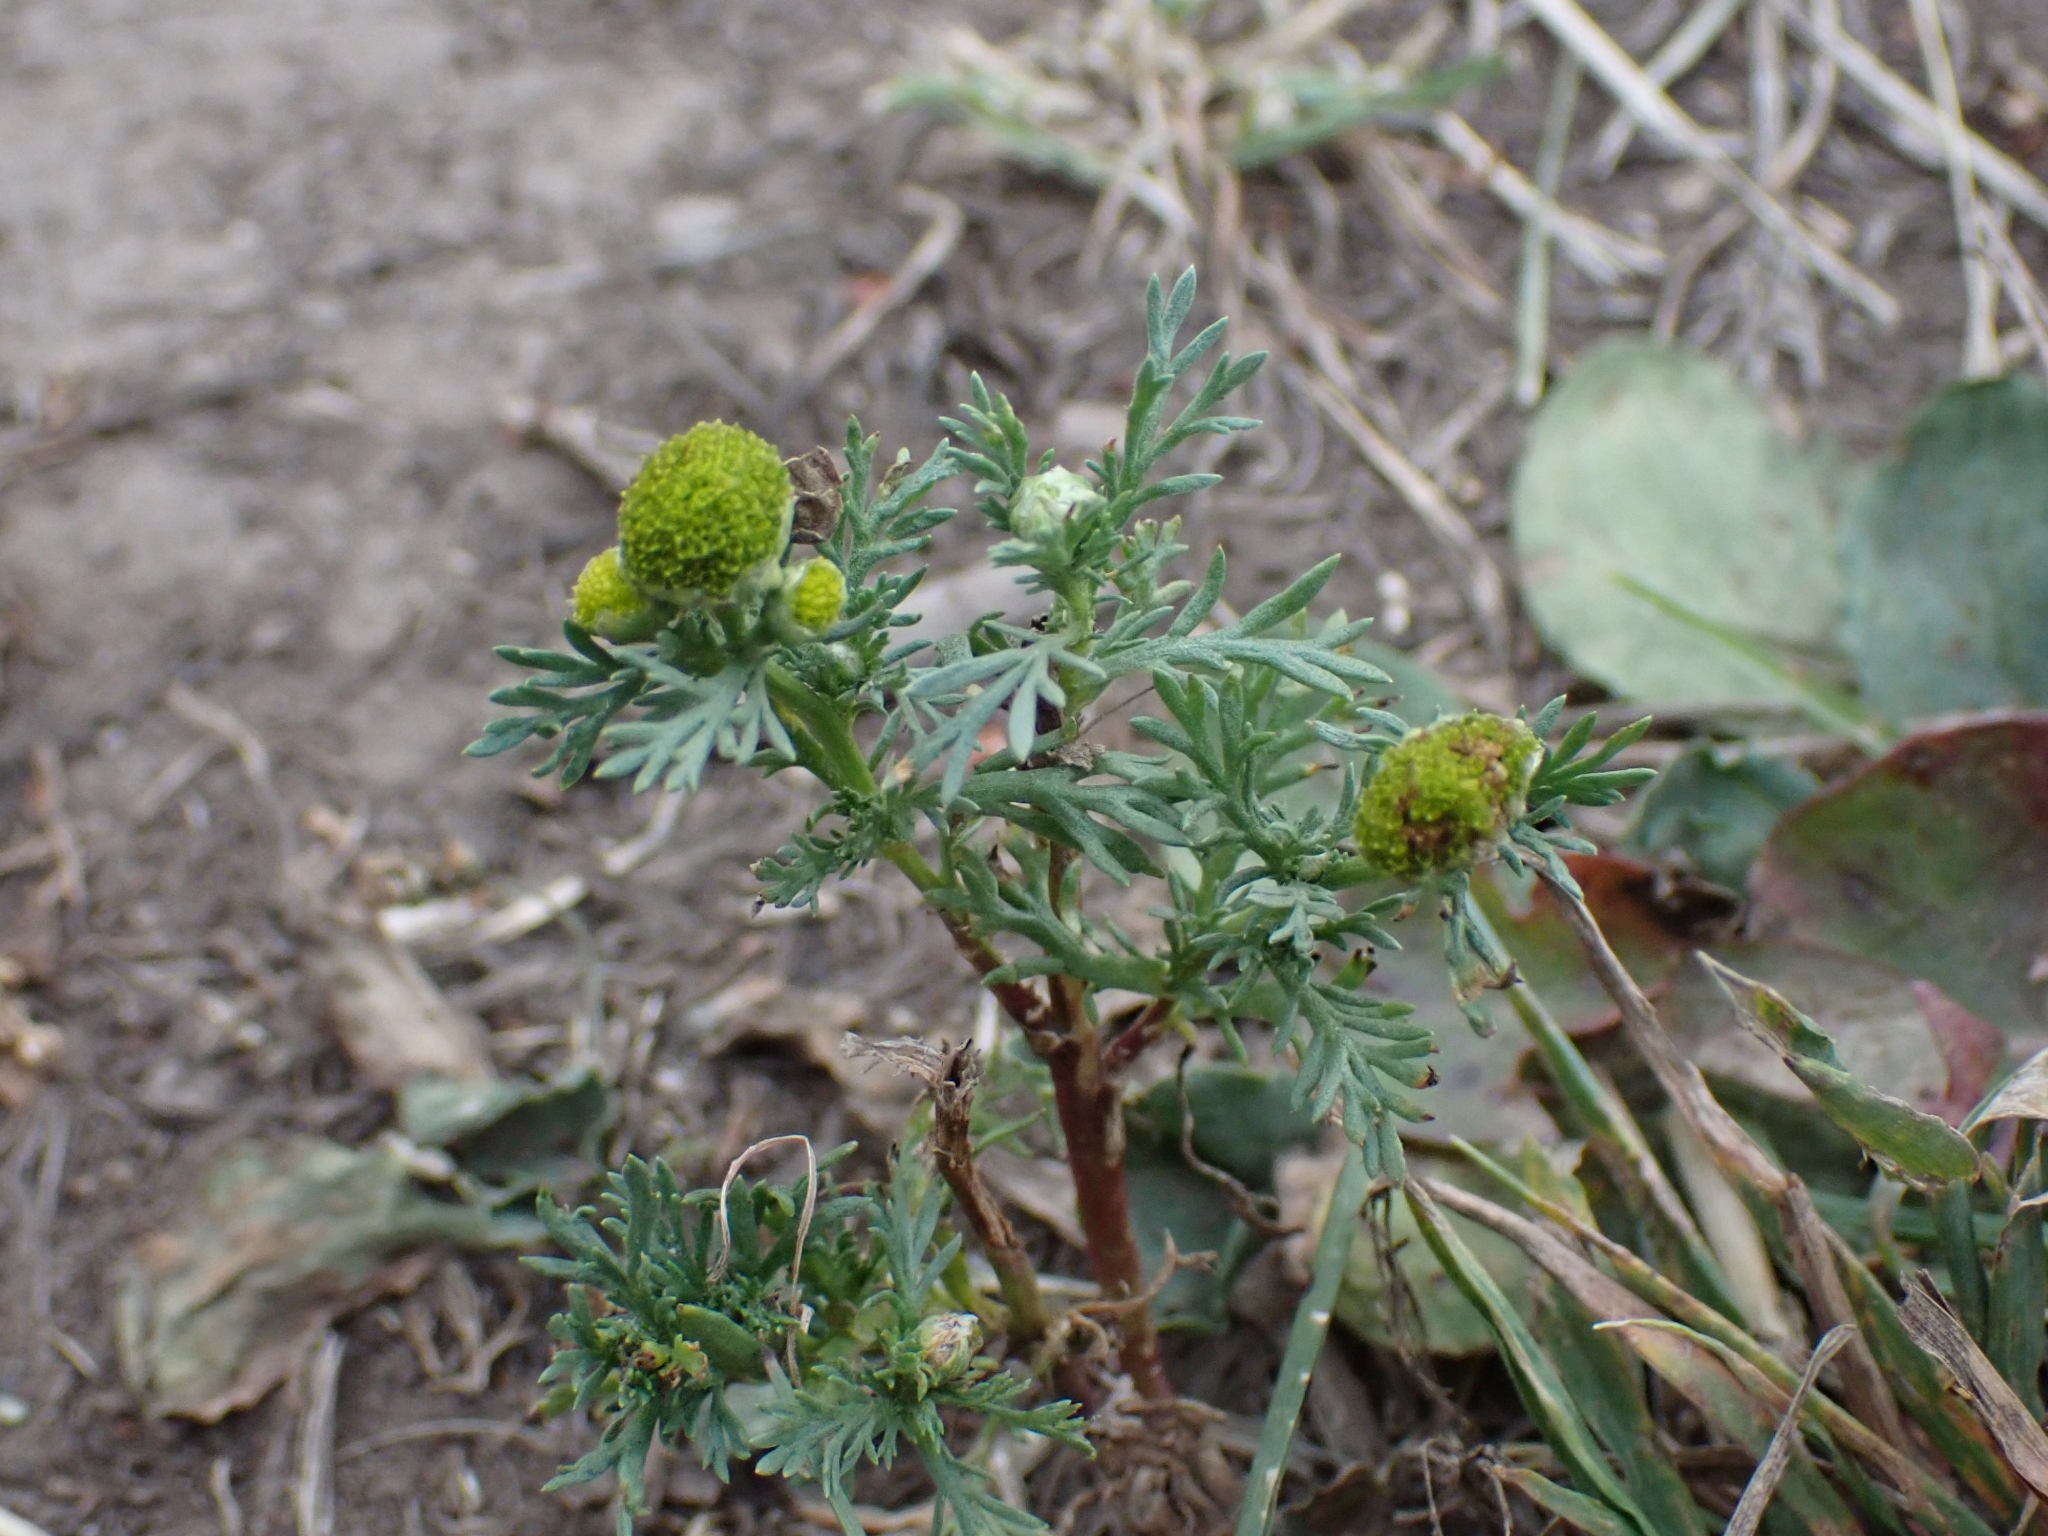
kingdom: Plantae
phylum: Tracheophyta
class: Magnoliopsida
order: Asterales
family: Asteraceae
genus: Matricaria
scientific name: Matricaria discoidea
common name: Disc mayweed
